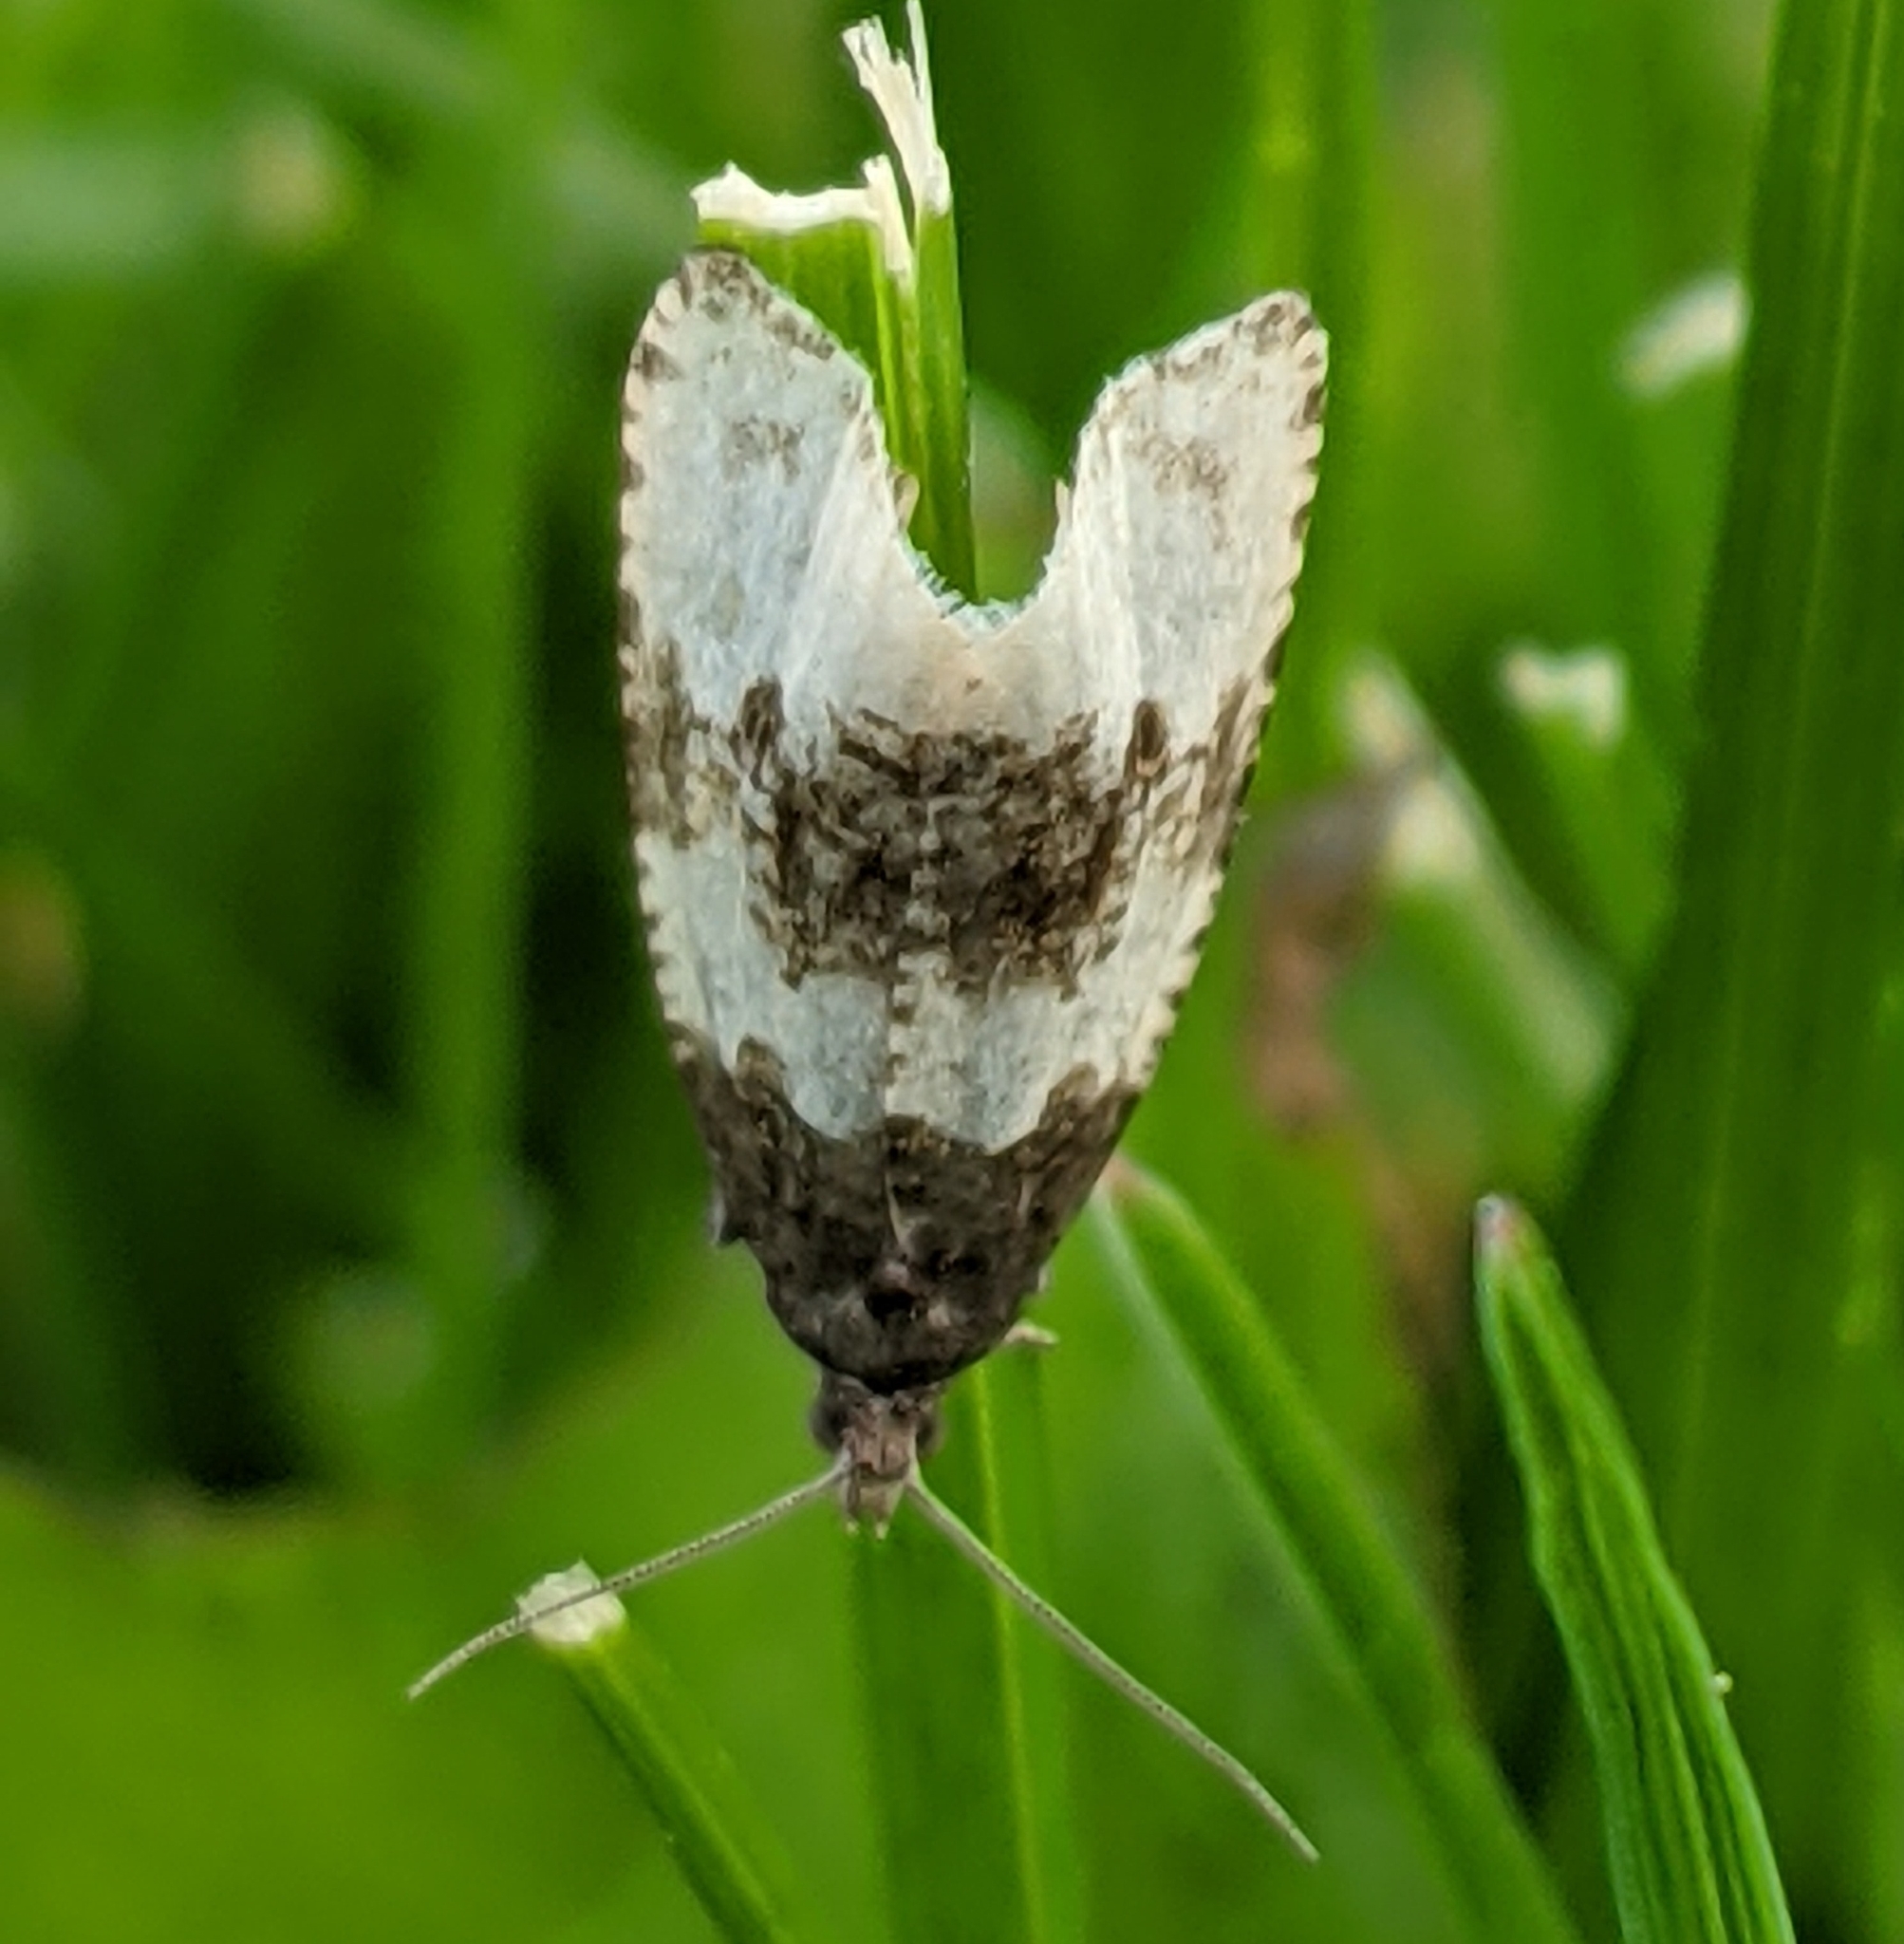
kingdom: Animalia
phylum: Arthropoda
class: Insecta
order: Lepidoptera
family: Tortricidae
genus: Olethreutes
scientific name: Olethreutes bipartitana
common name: Divided olethreutes moth
